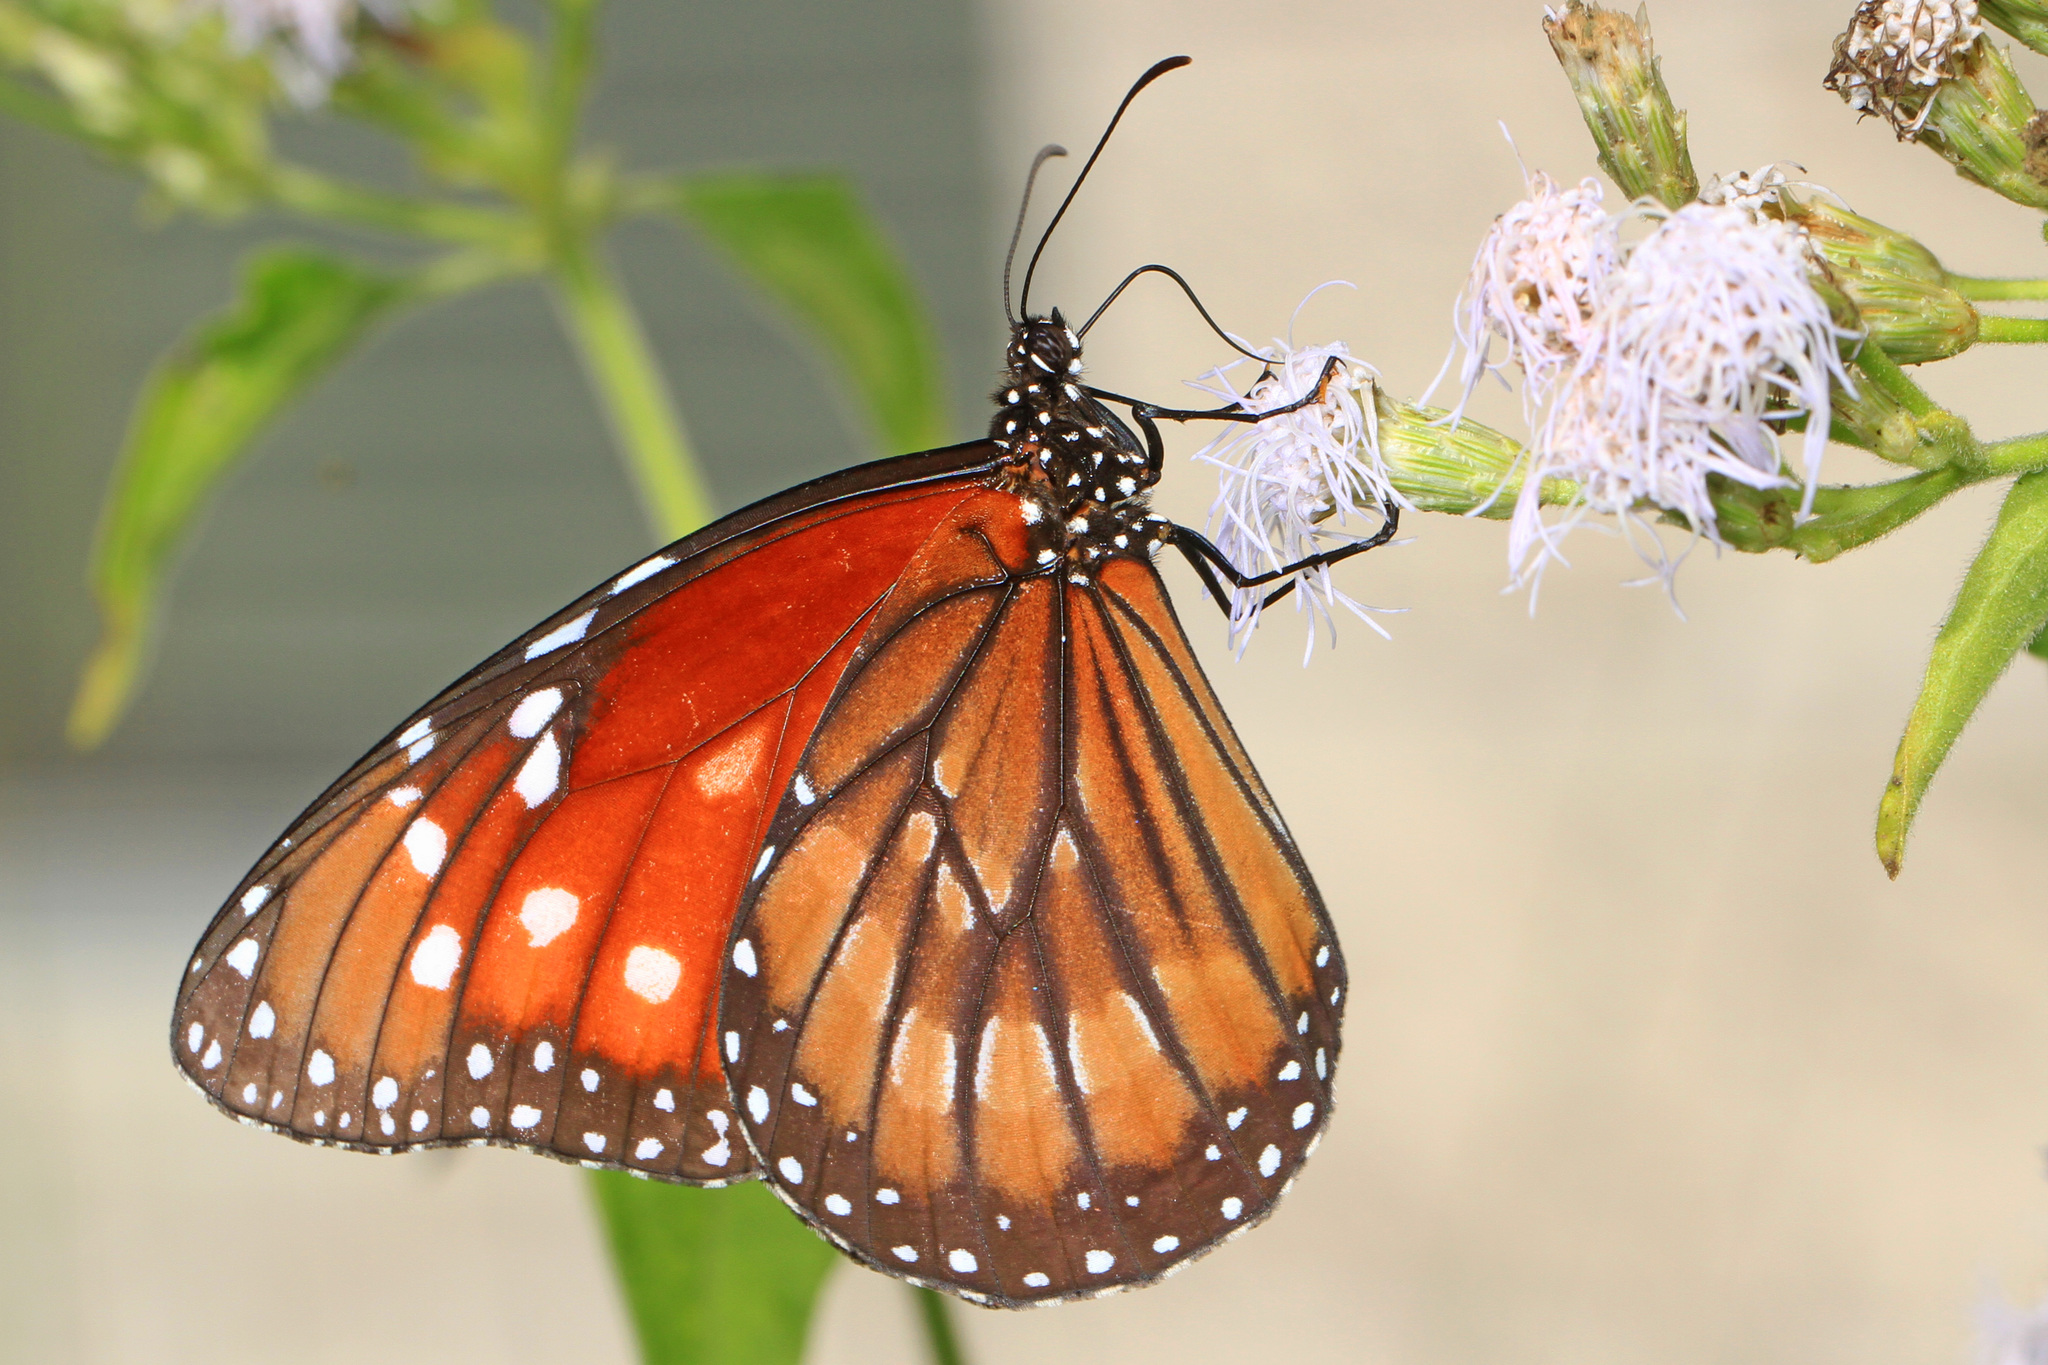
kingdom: Animalia
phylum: Arthropoda
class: Insecta
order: Lepidoptera
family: Nymphalidae
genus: Danaus
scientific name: Danaus eresimus
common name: Soldier
